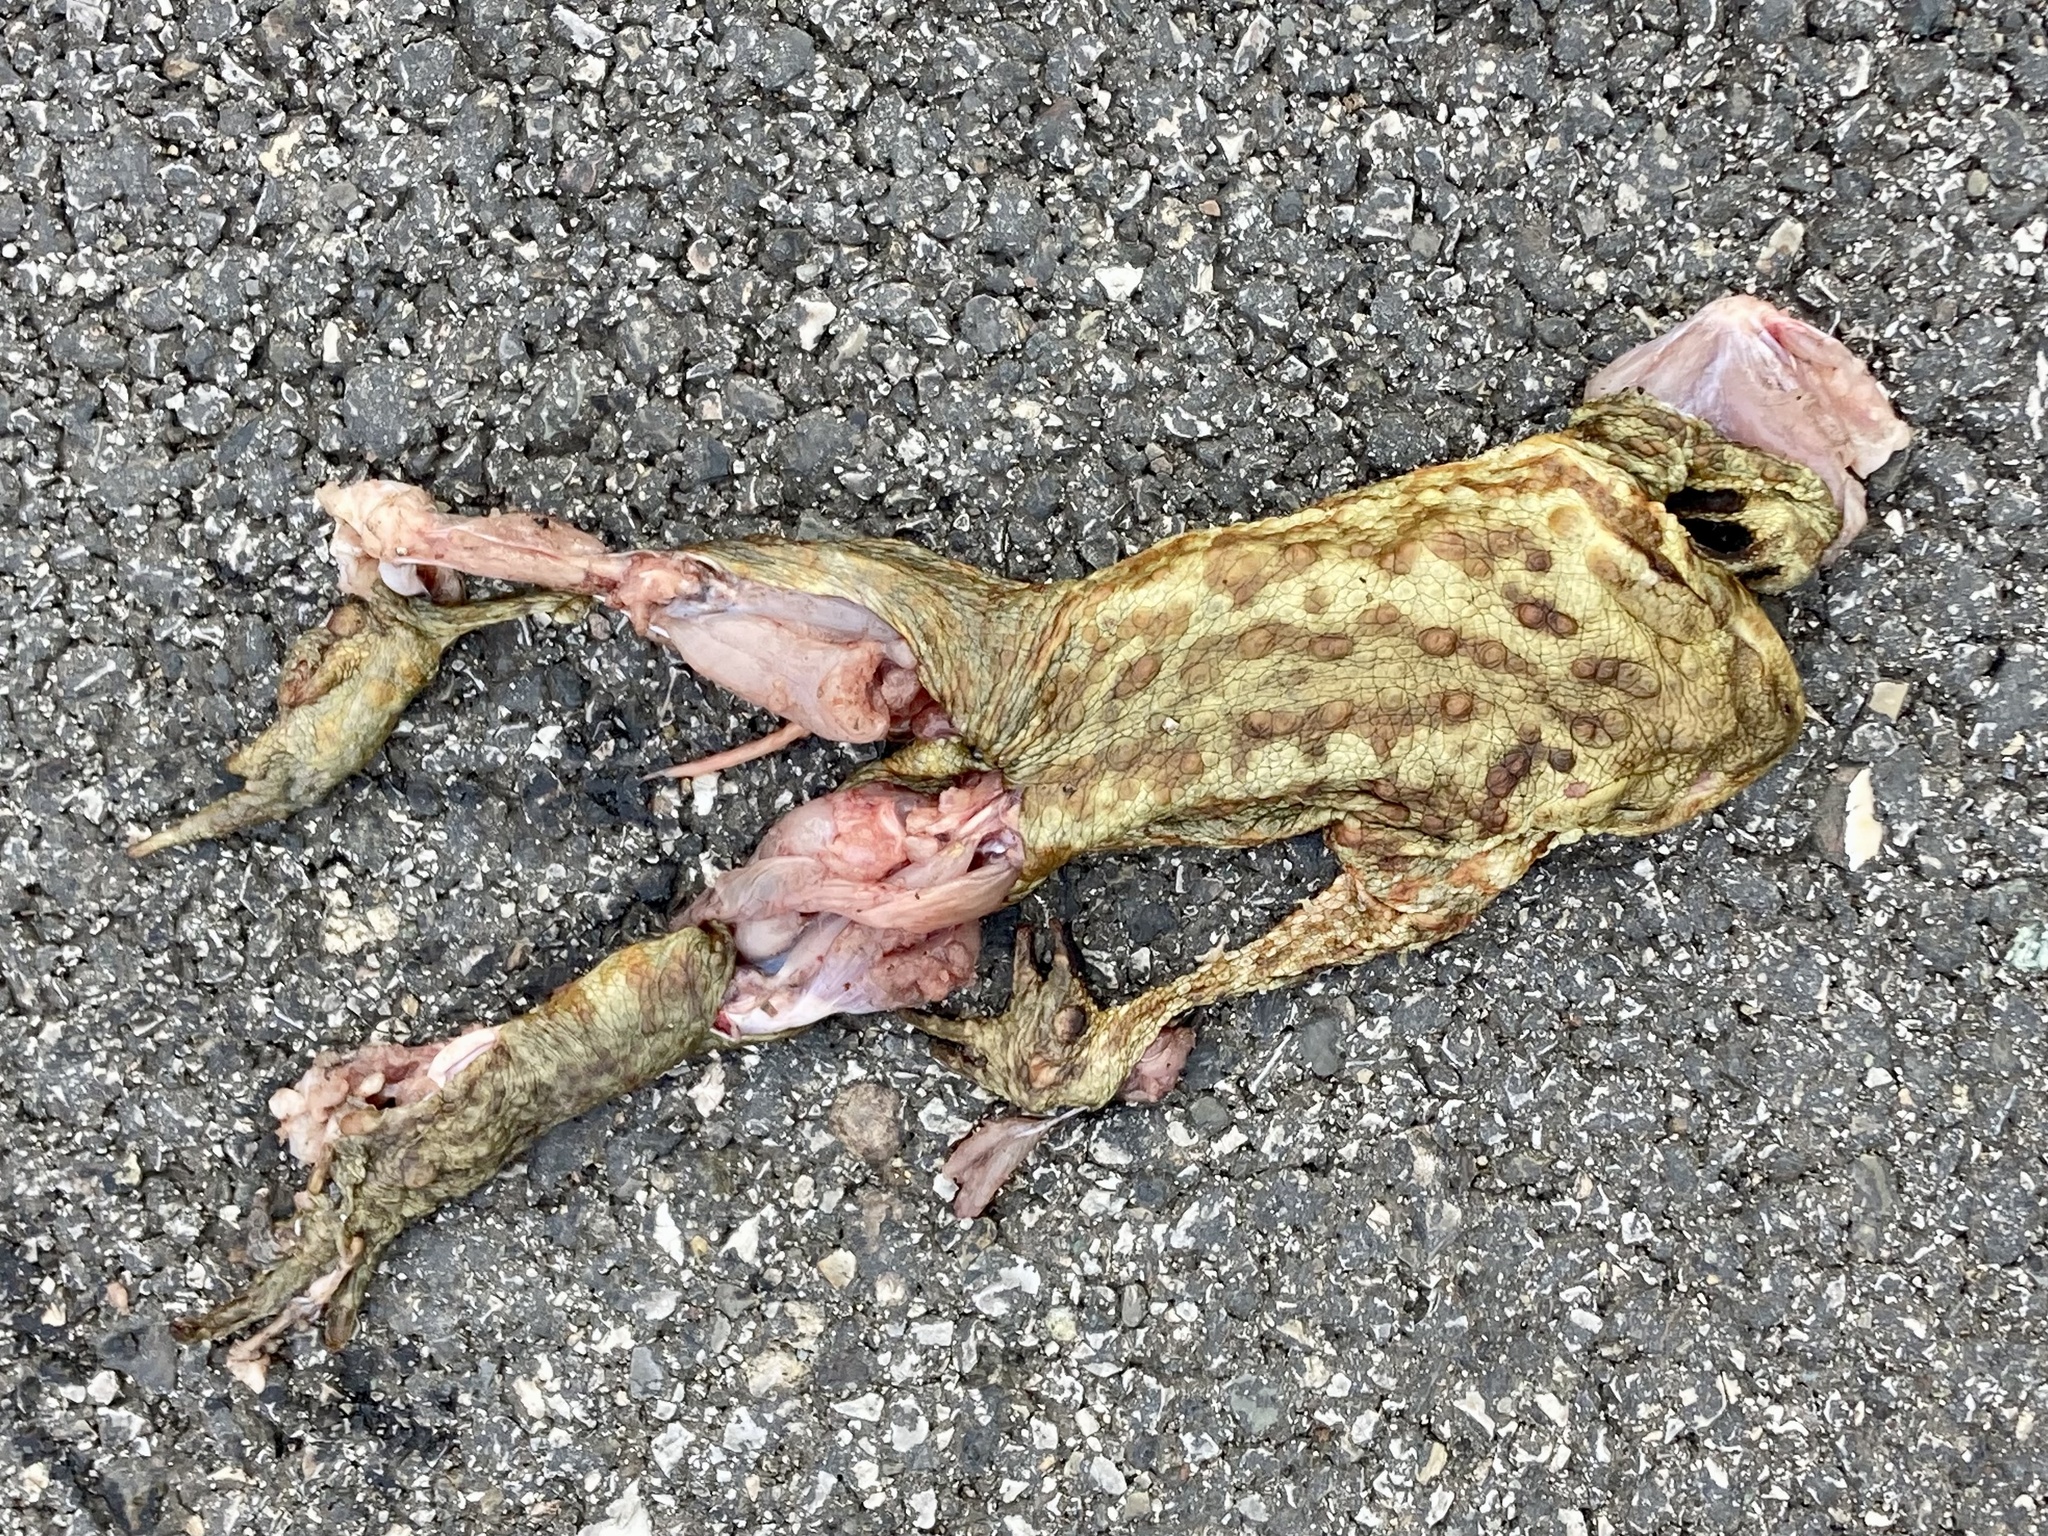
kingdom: Animalia
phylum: Chordata
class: Amphibia
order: Anura
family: Bufonidae
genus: Bufo
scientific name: Bufo bufo
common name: Common toad
